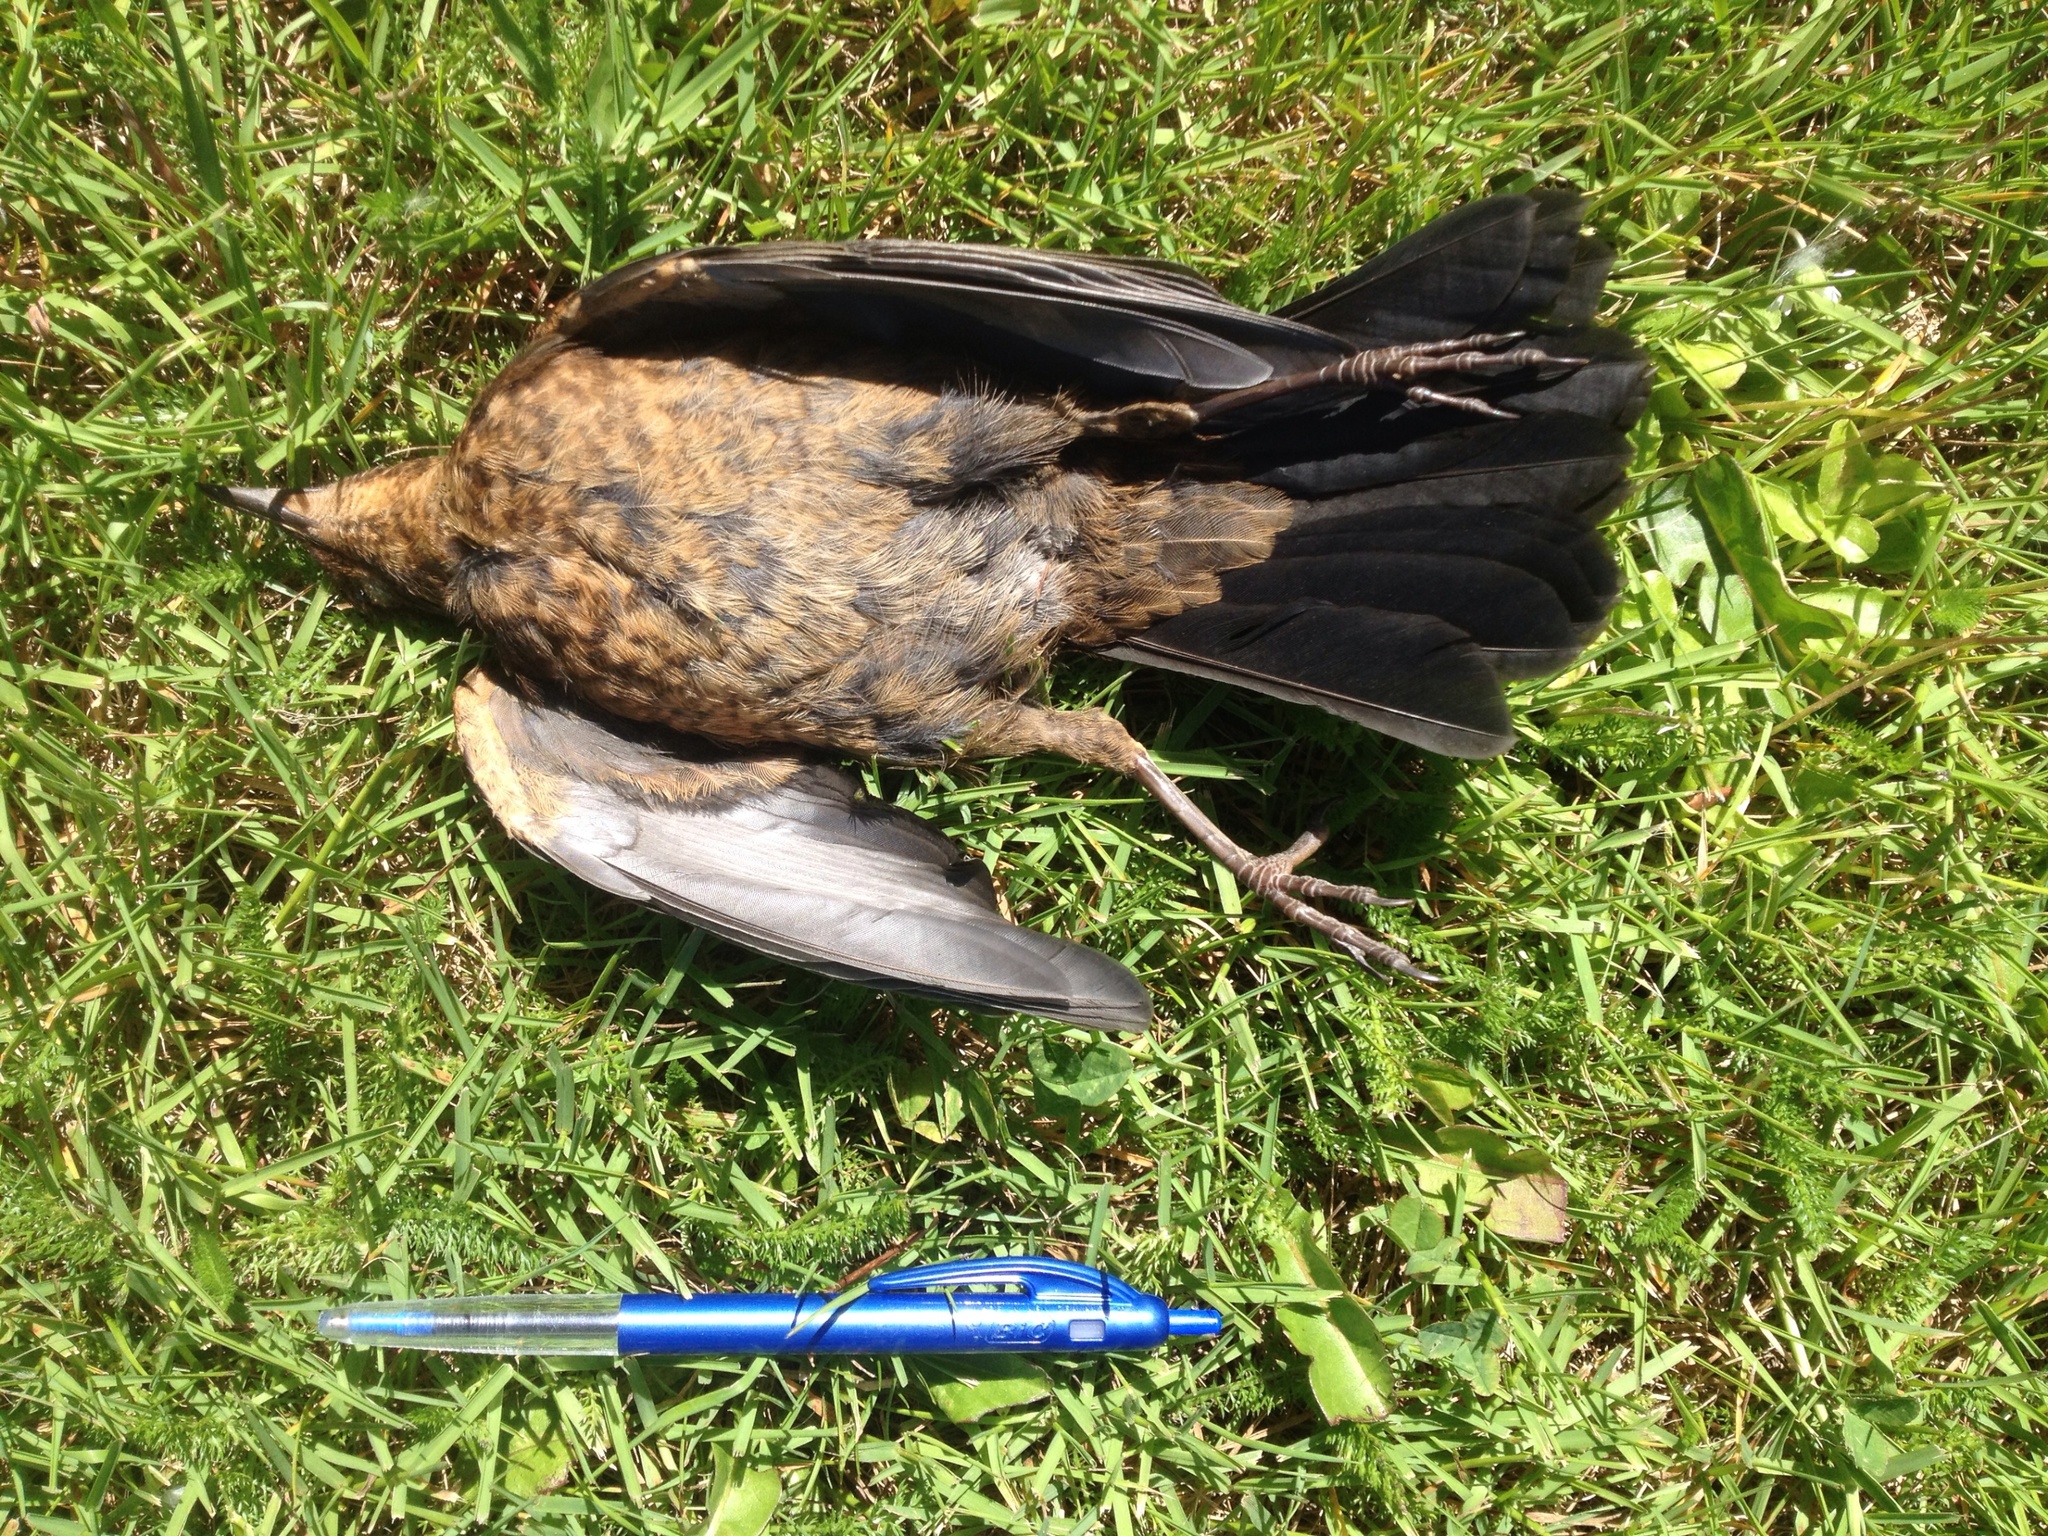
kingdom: Animalia
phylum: Chordata
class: Aves
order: Passeriformes
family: Turdidae
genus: Turdus
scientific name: Turdus merula
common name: Common blackbird
